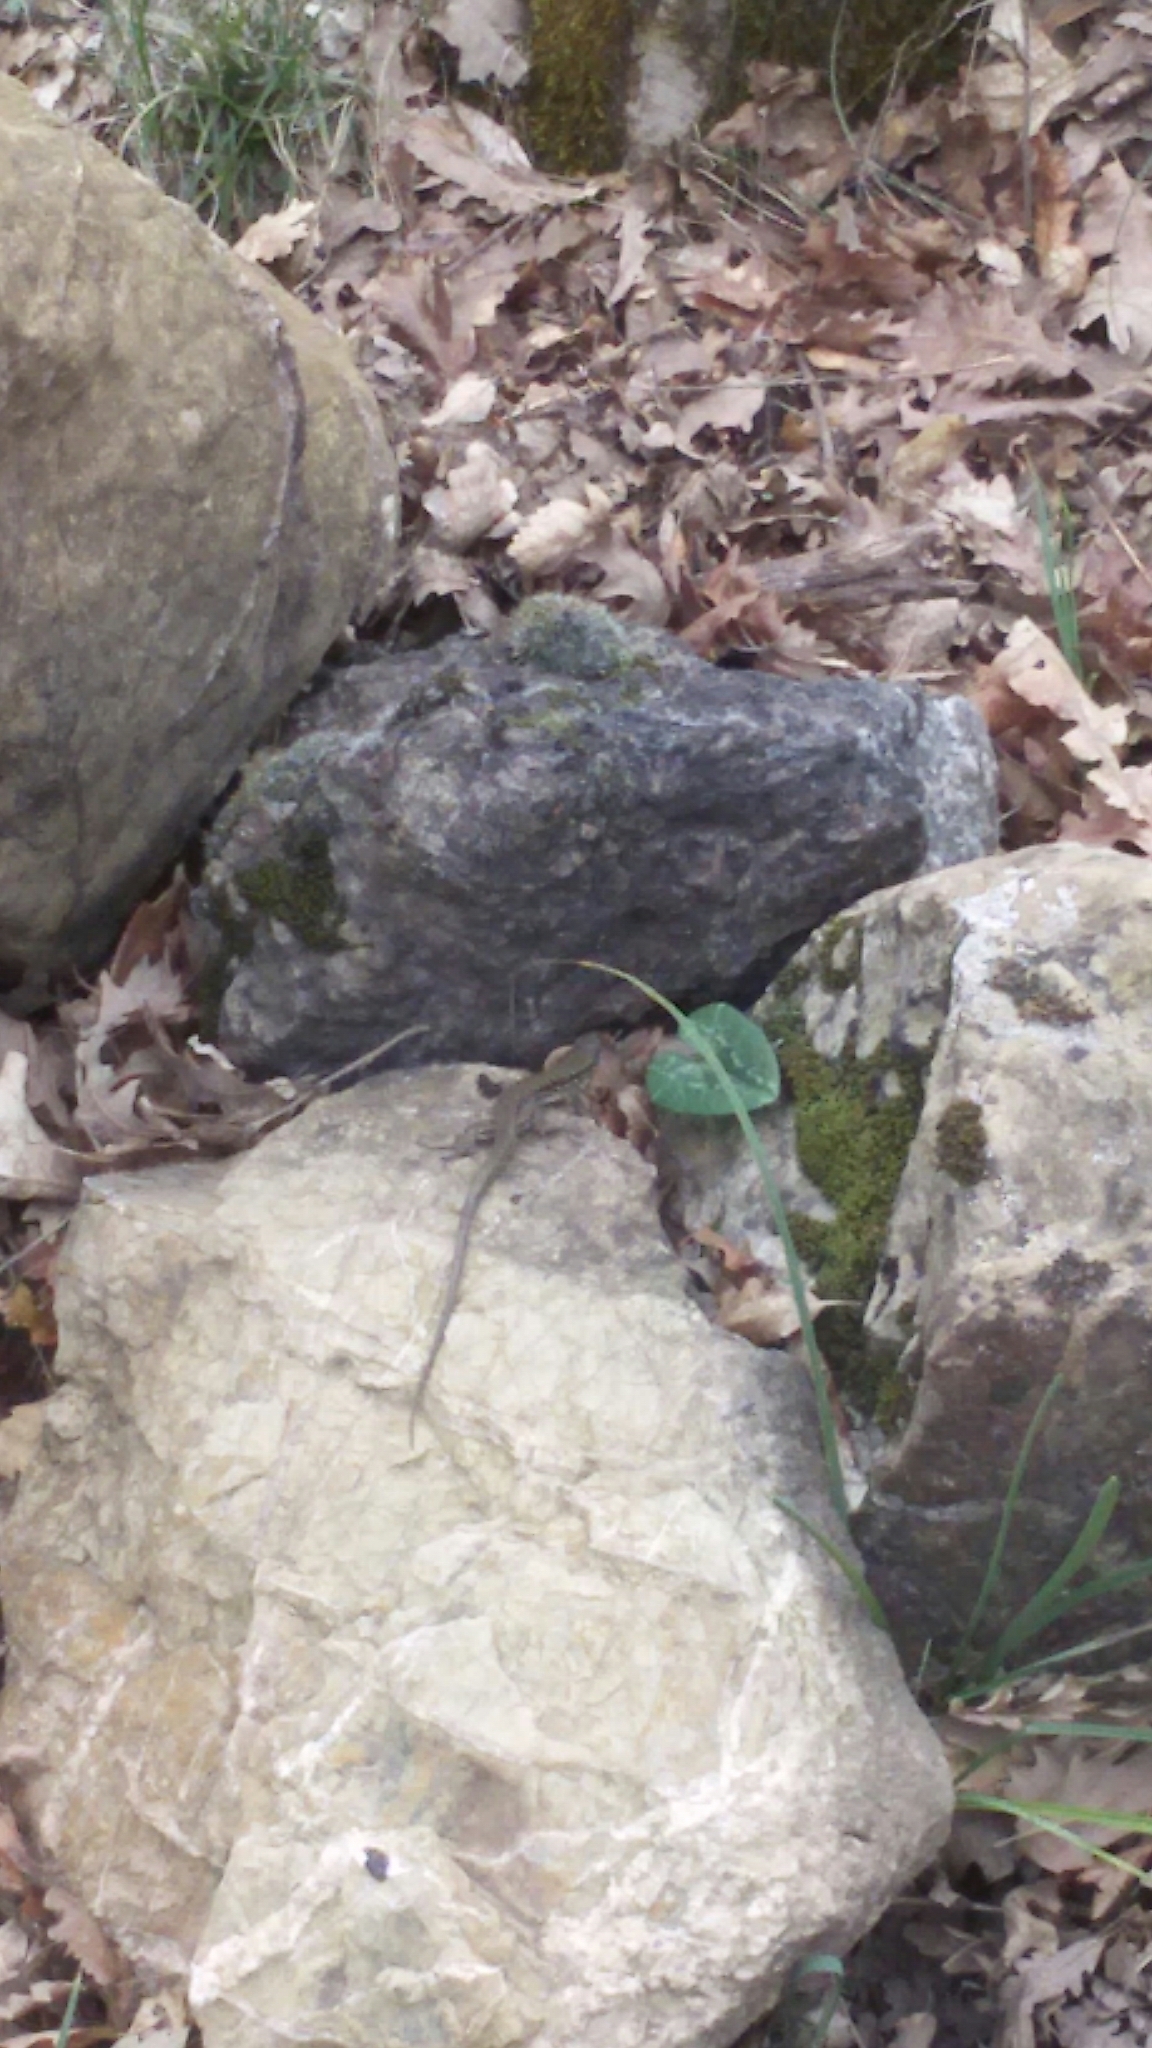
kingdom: Animalia
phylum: Chordata
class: Squamata
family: Lacertidae
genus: Podarcis
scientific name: Podarcis muralis
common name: Common wall lizard
